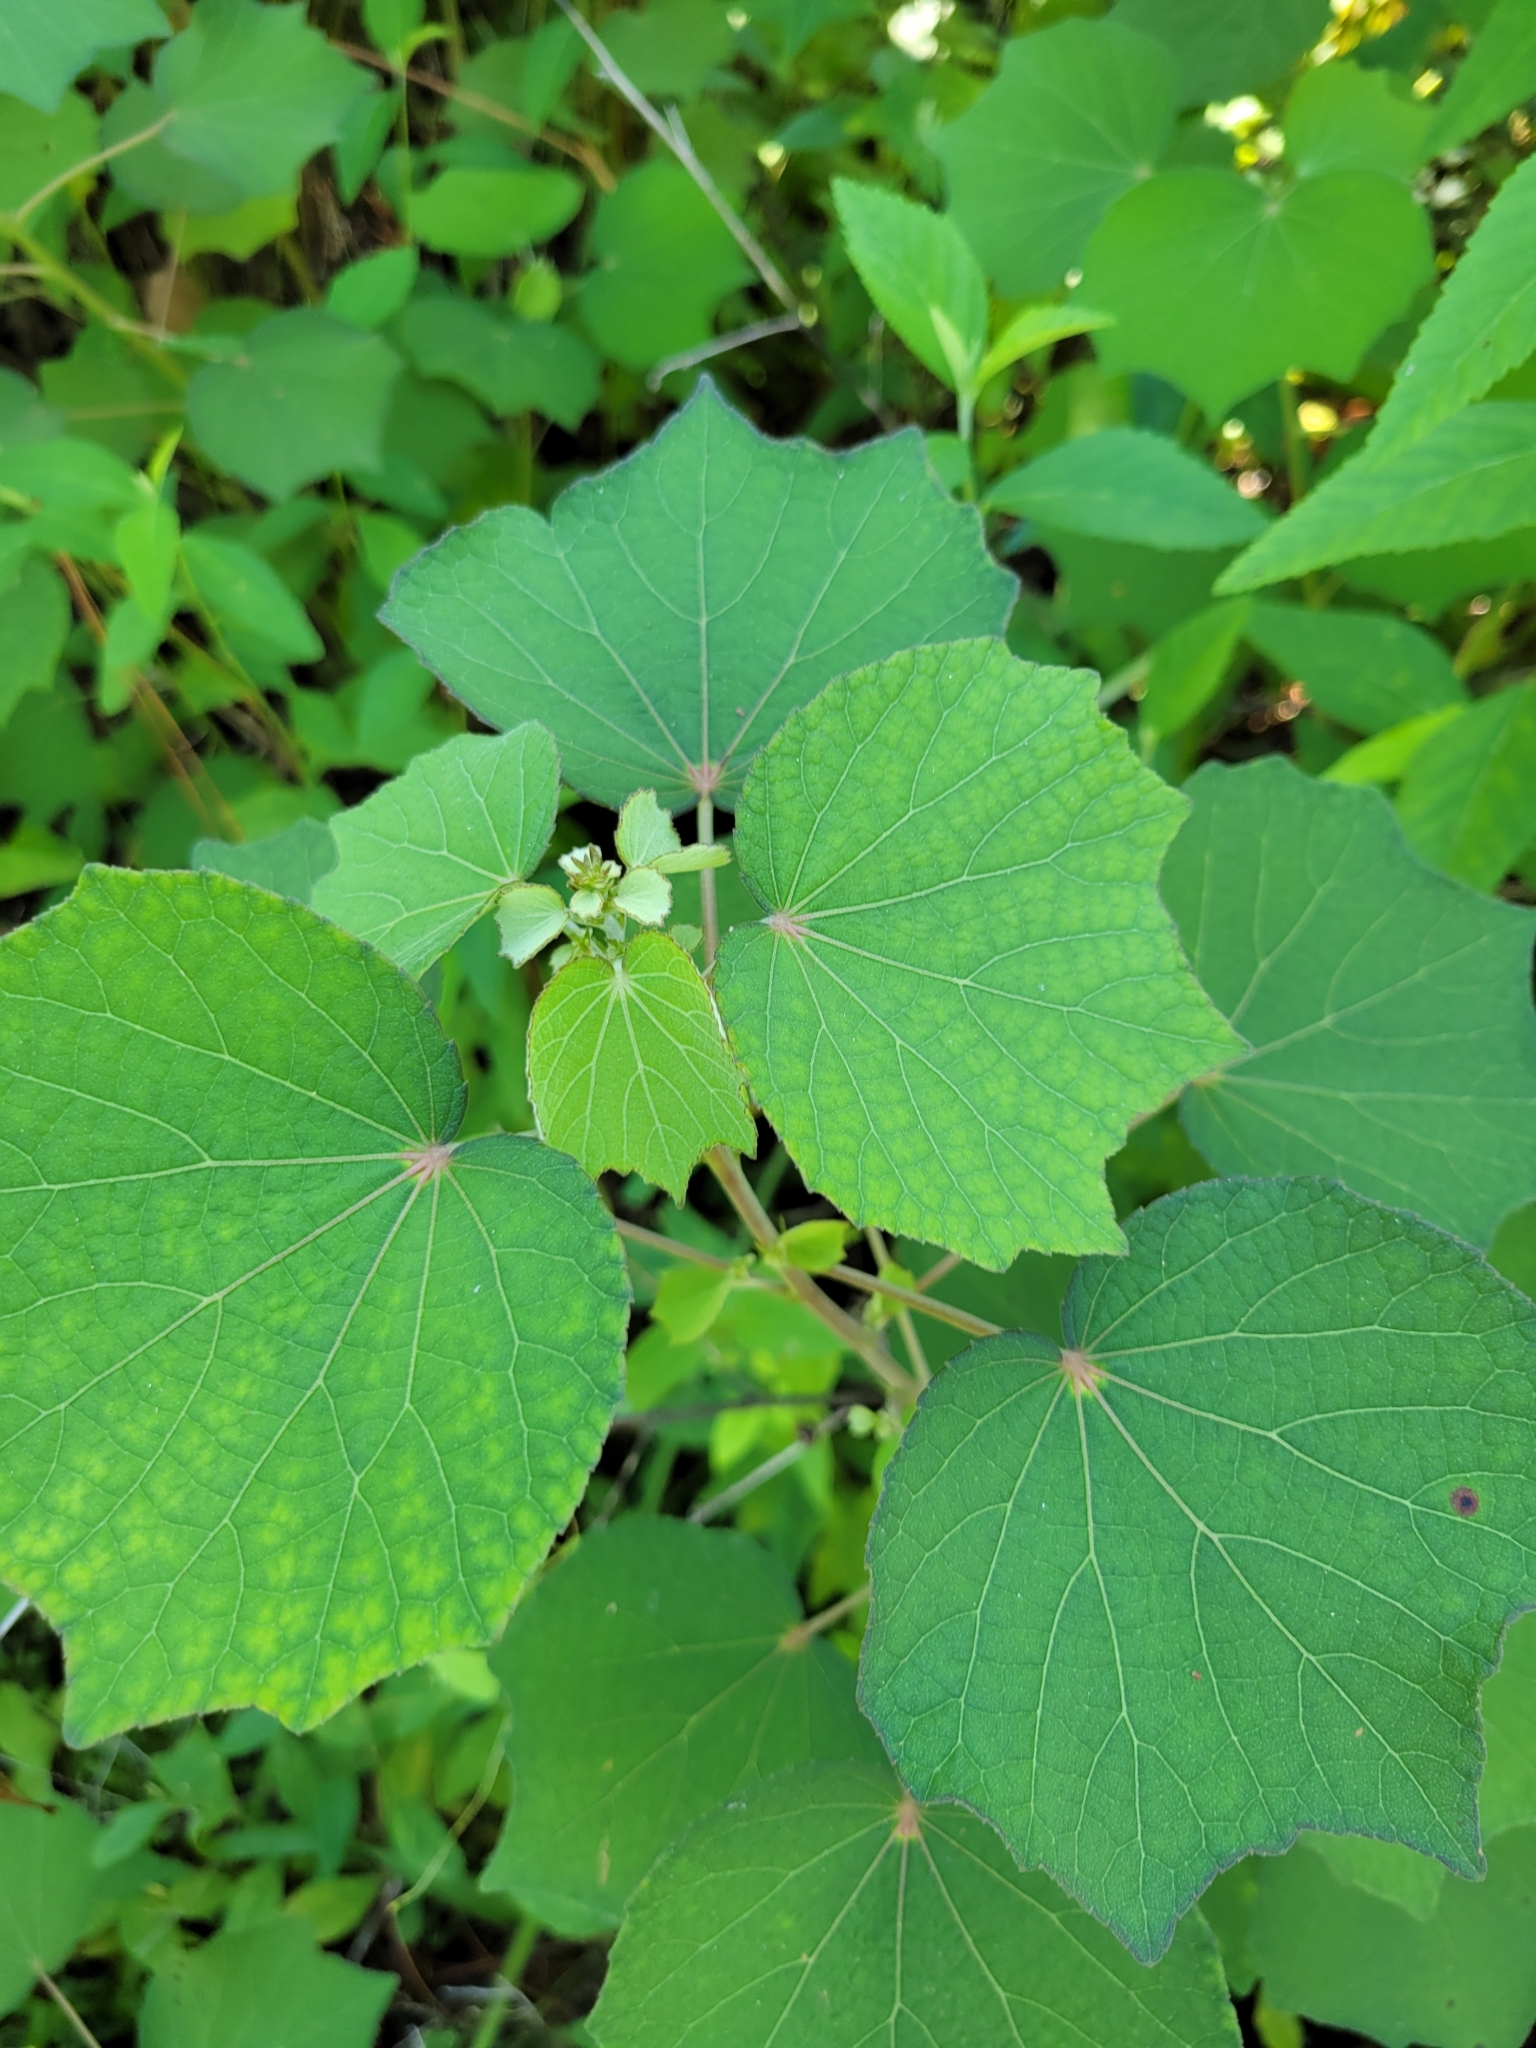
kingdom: Plantae
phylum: Tracheophyta
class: Magnoliopsida
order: Malvales
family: Malvaceae
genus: Urena
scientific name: Urena lobata
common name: Caesarweed
